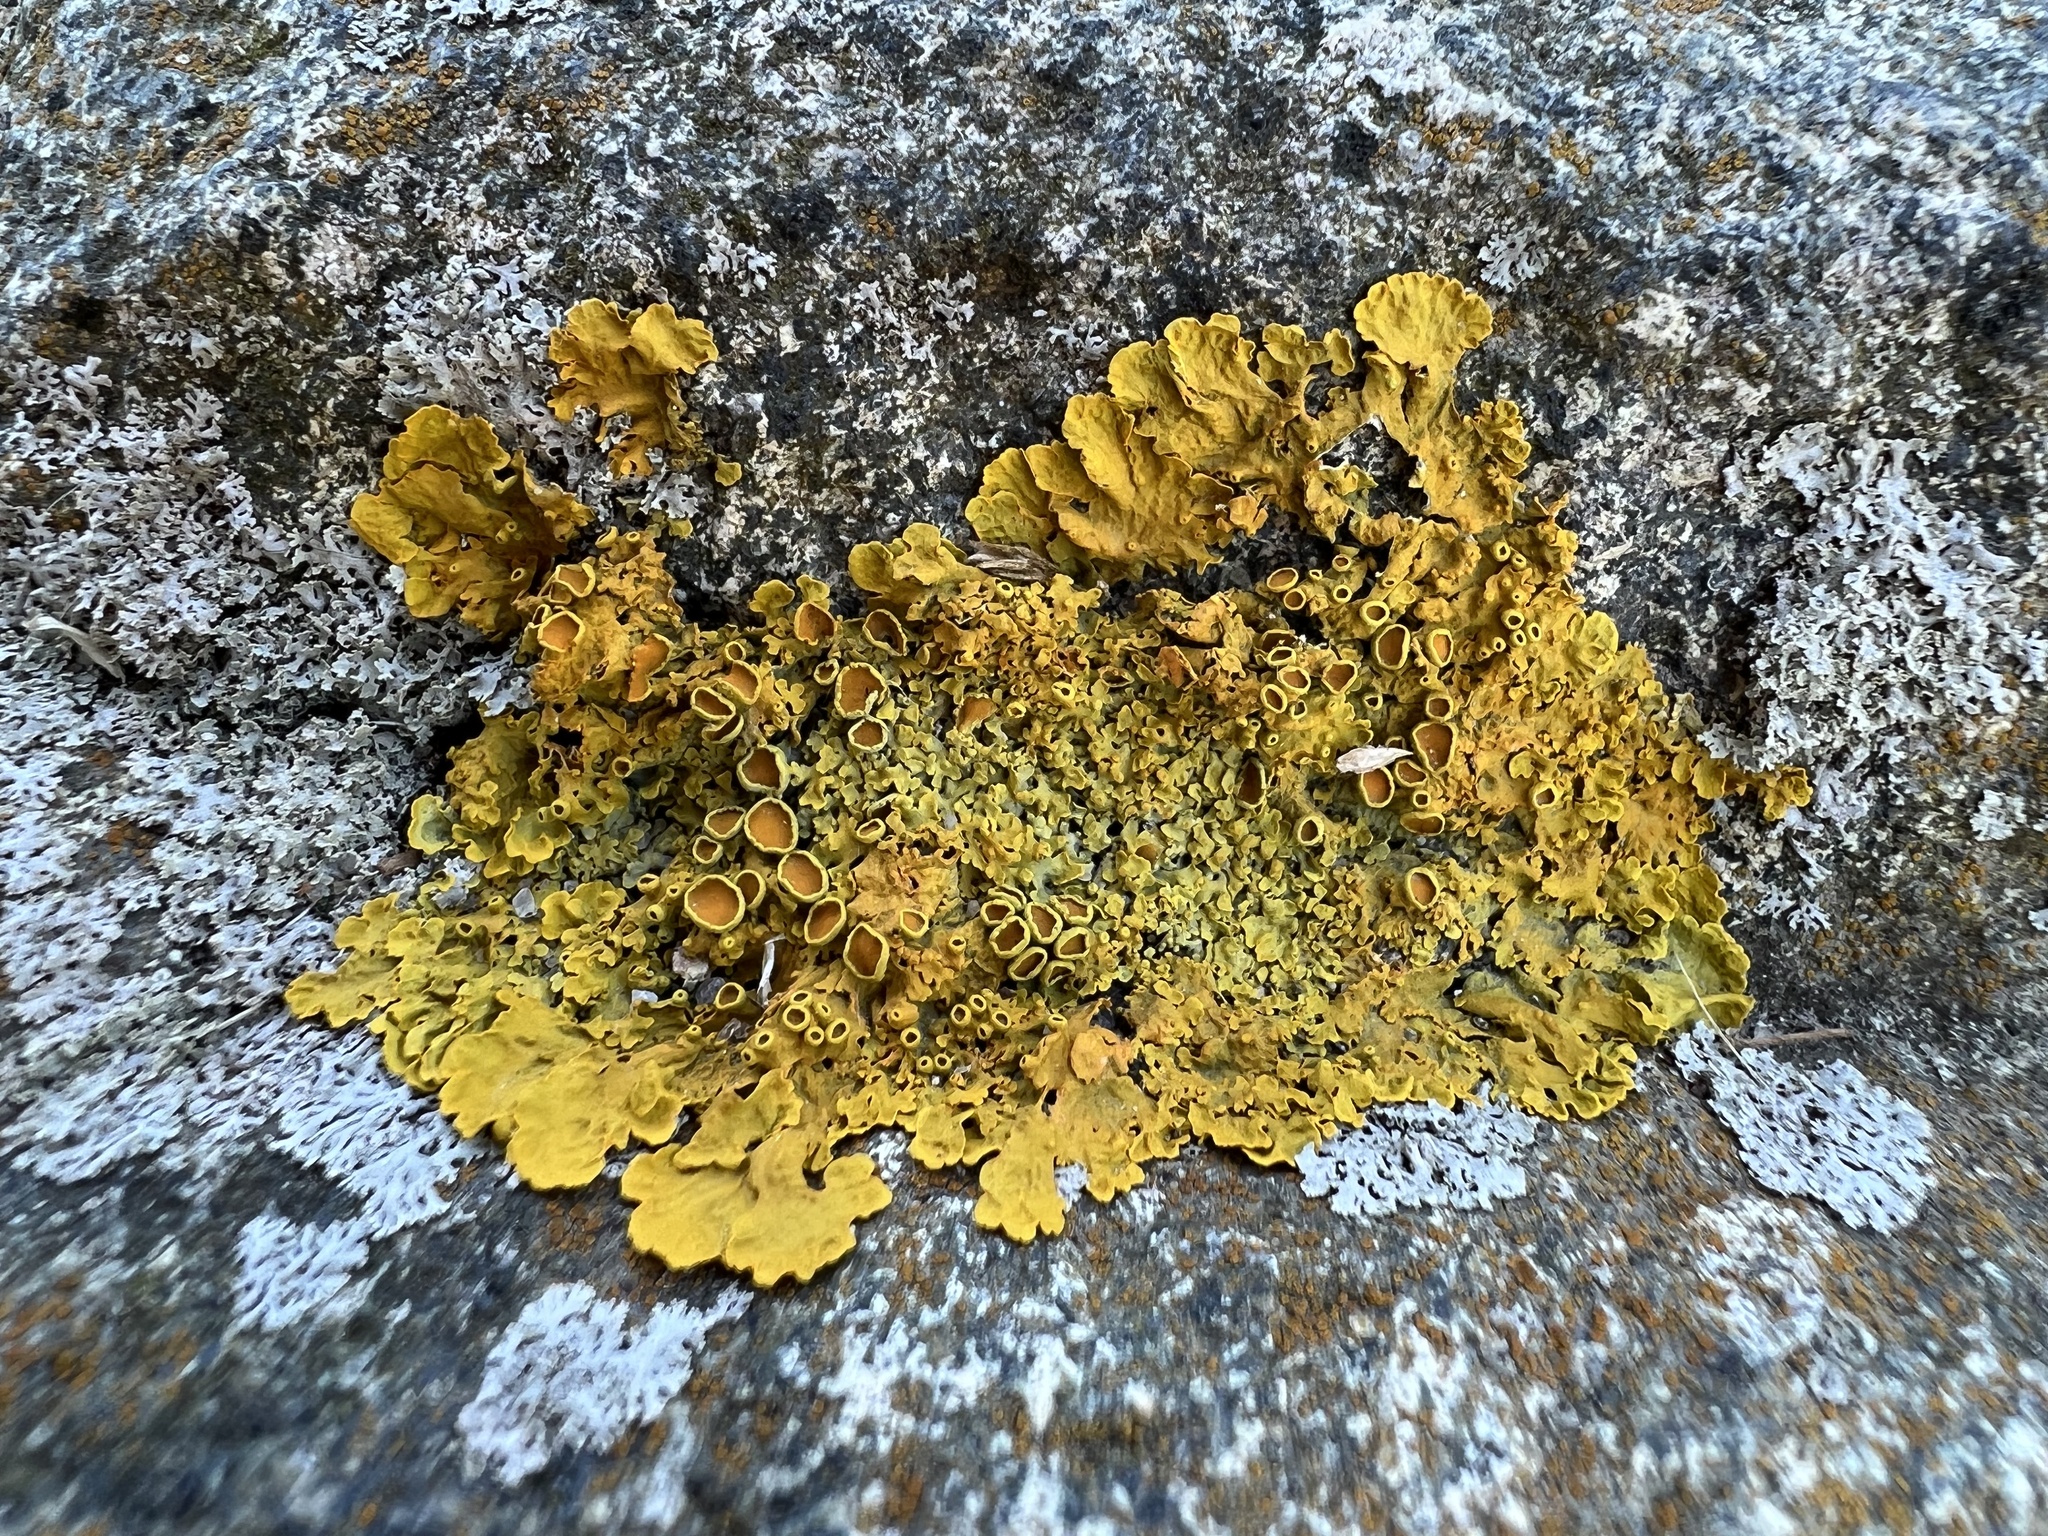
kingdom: Fungi
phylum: Ascomycota
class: Lecanoromycetes
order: Teloschistales
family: Teloschistaceae
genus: Xanthoria
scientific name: Xanthoria parietina
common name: Common orange lichen
